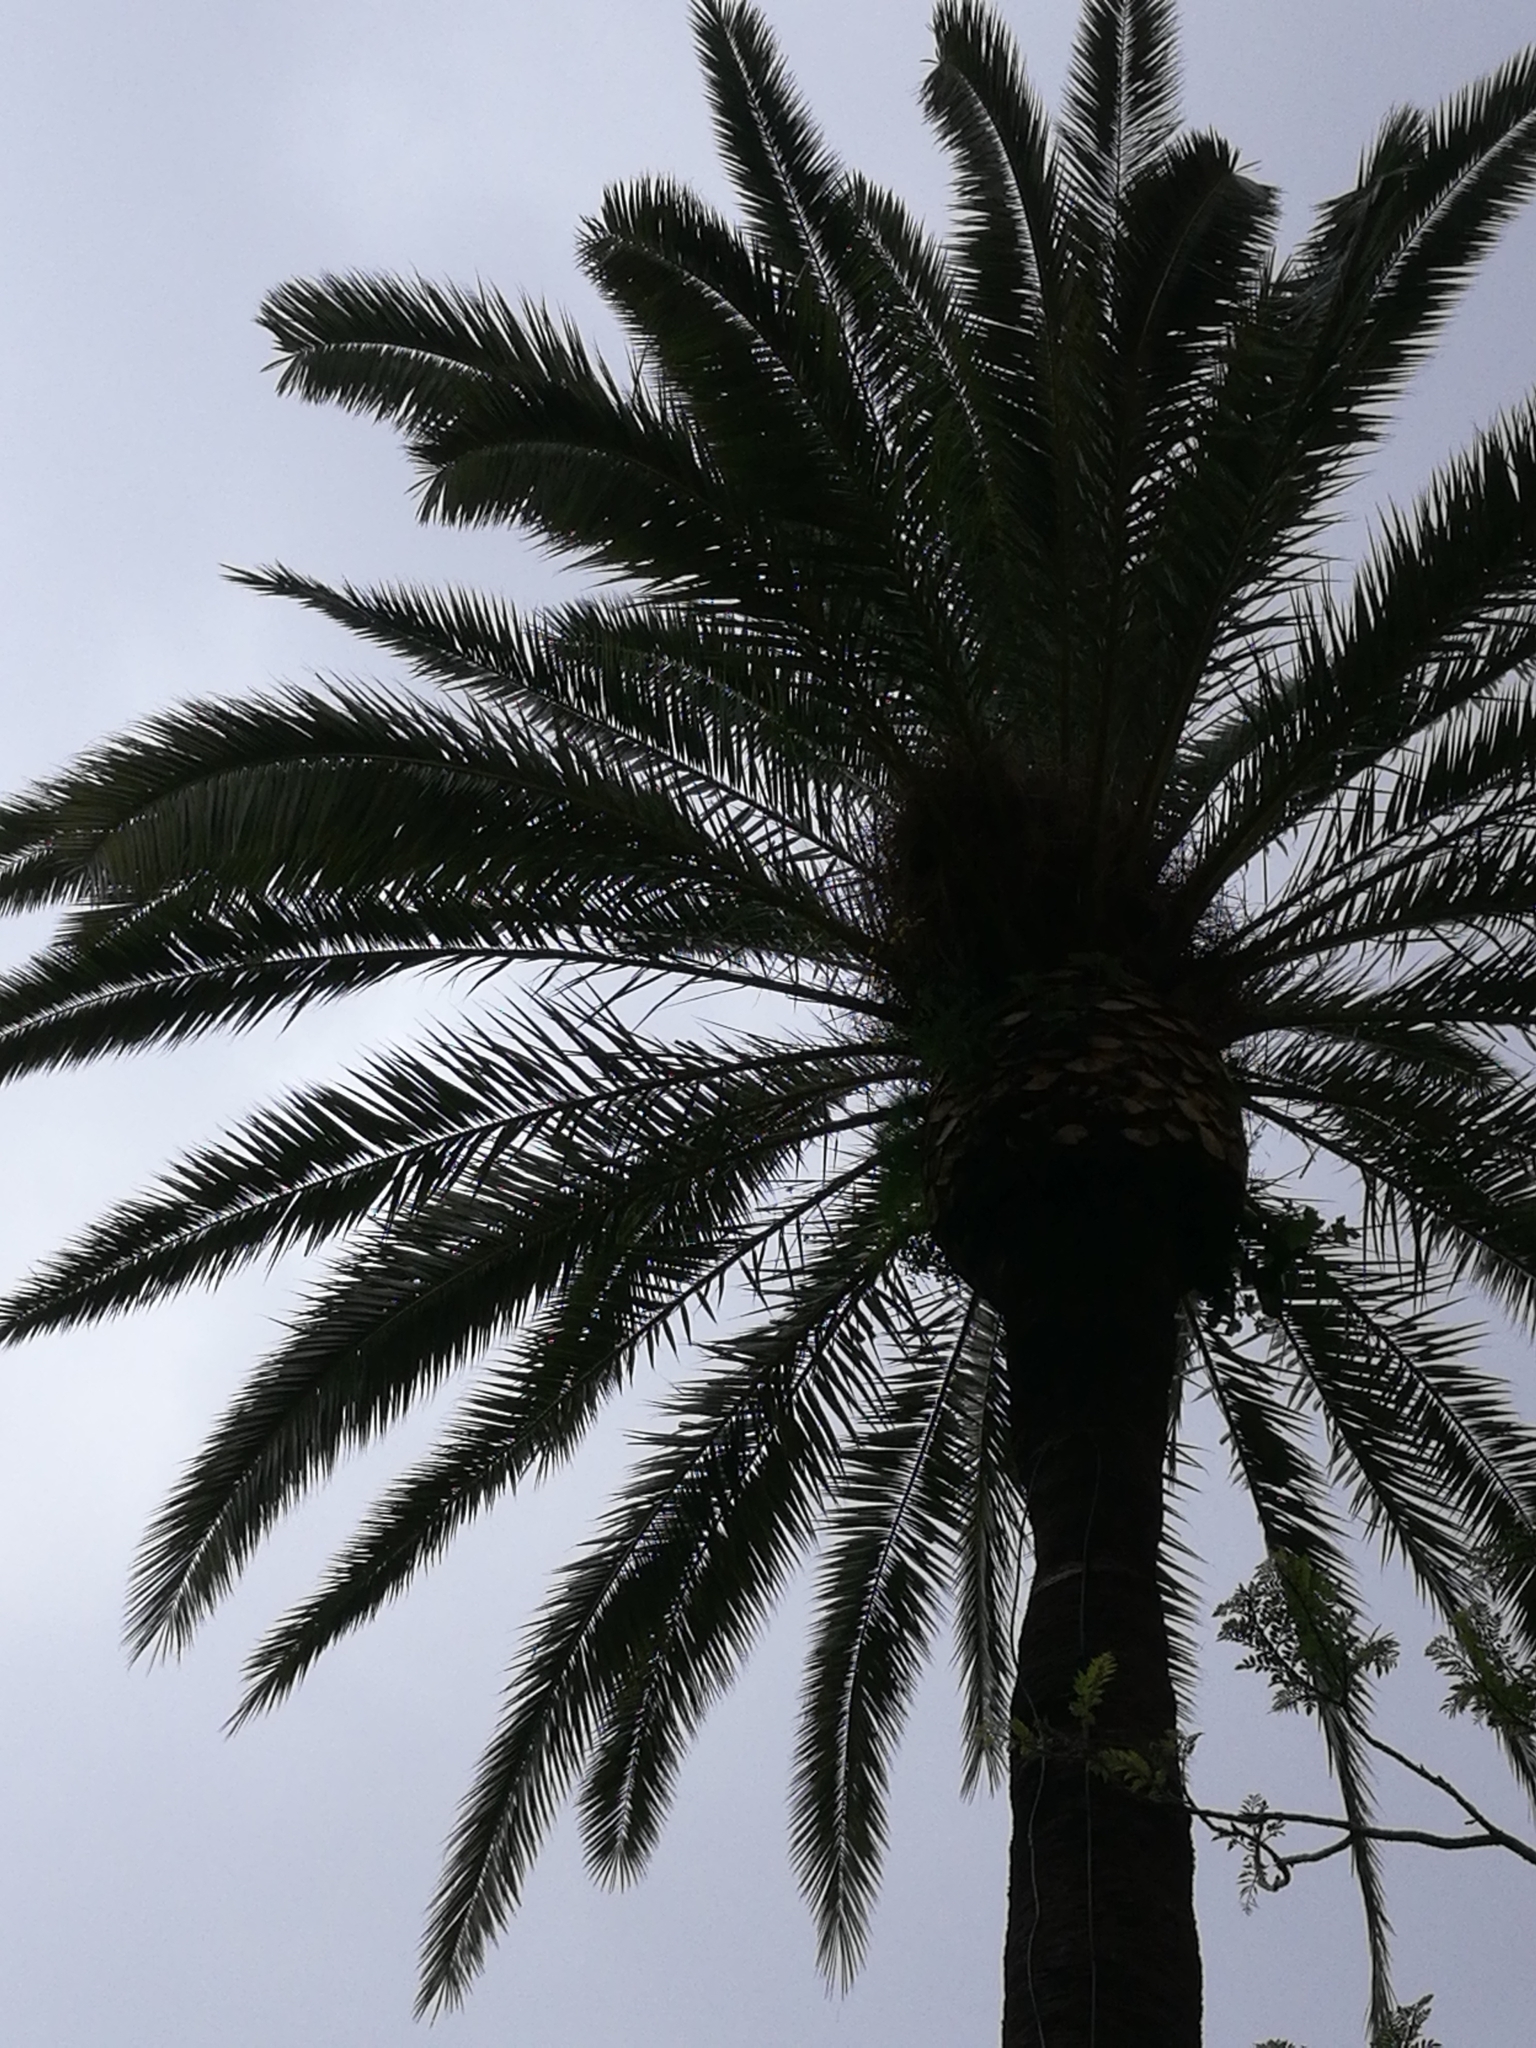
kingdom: Animalia
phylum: Chordata
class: Aves
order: Psittaciformes
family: Psittacidae
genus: Myiopsitta
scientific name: Myiopsitta monachus
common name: Monk parakeet
